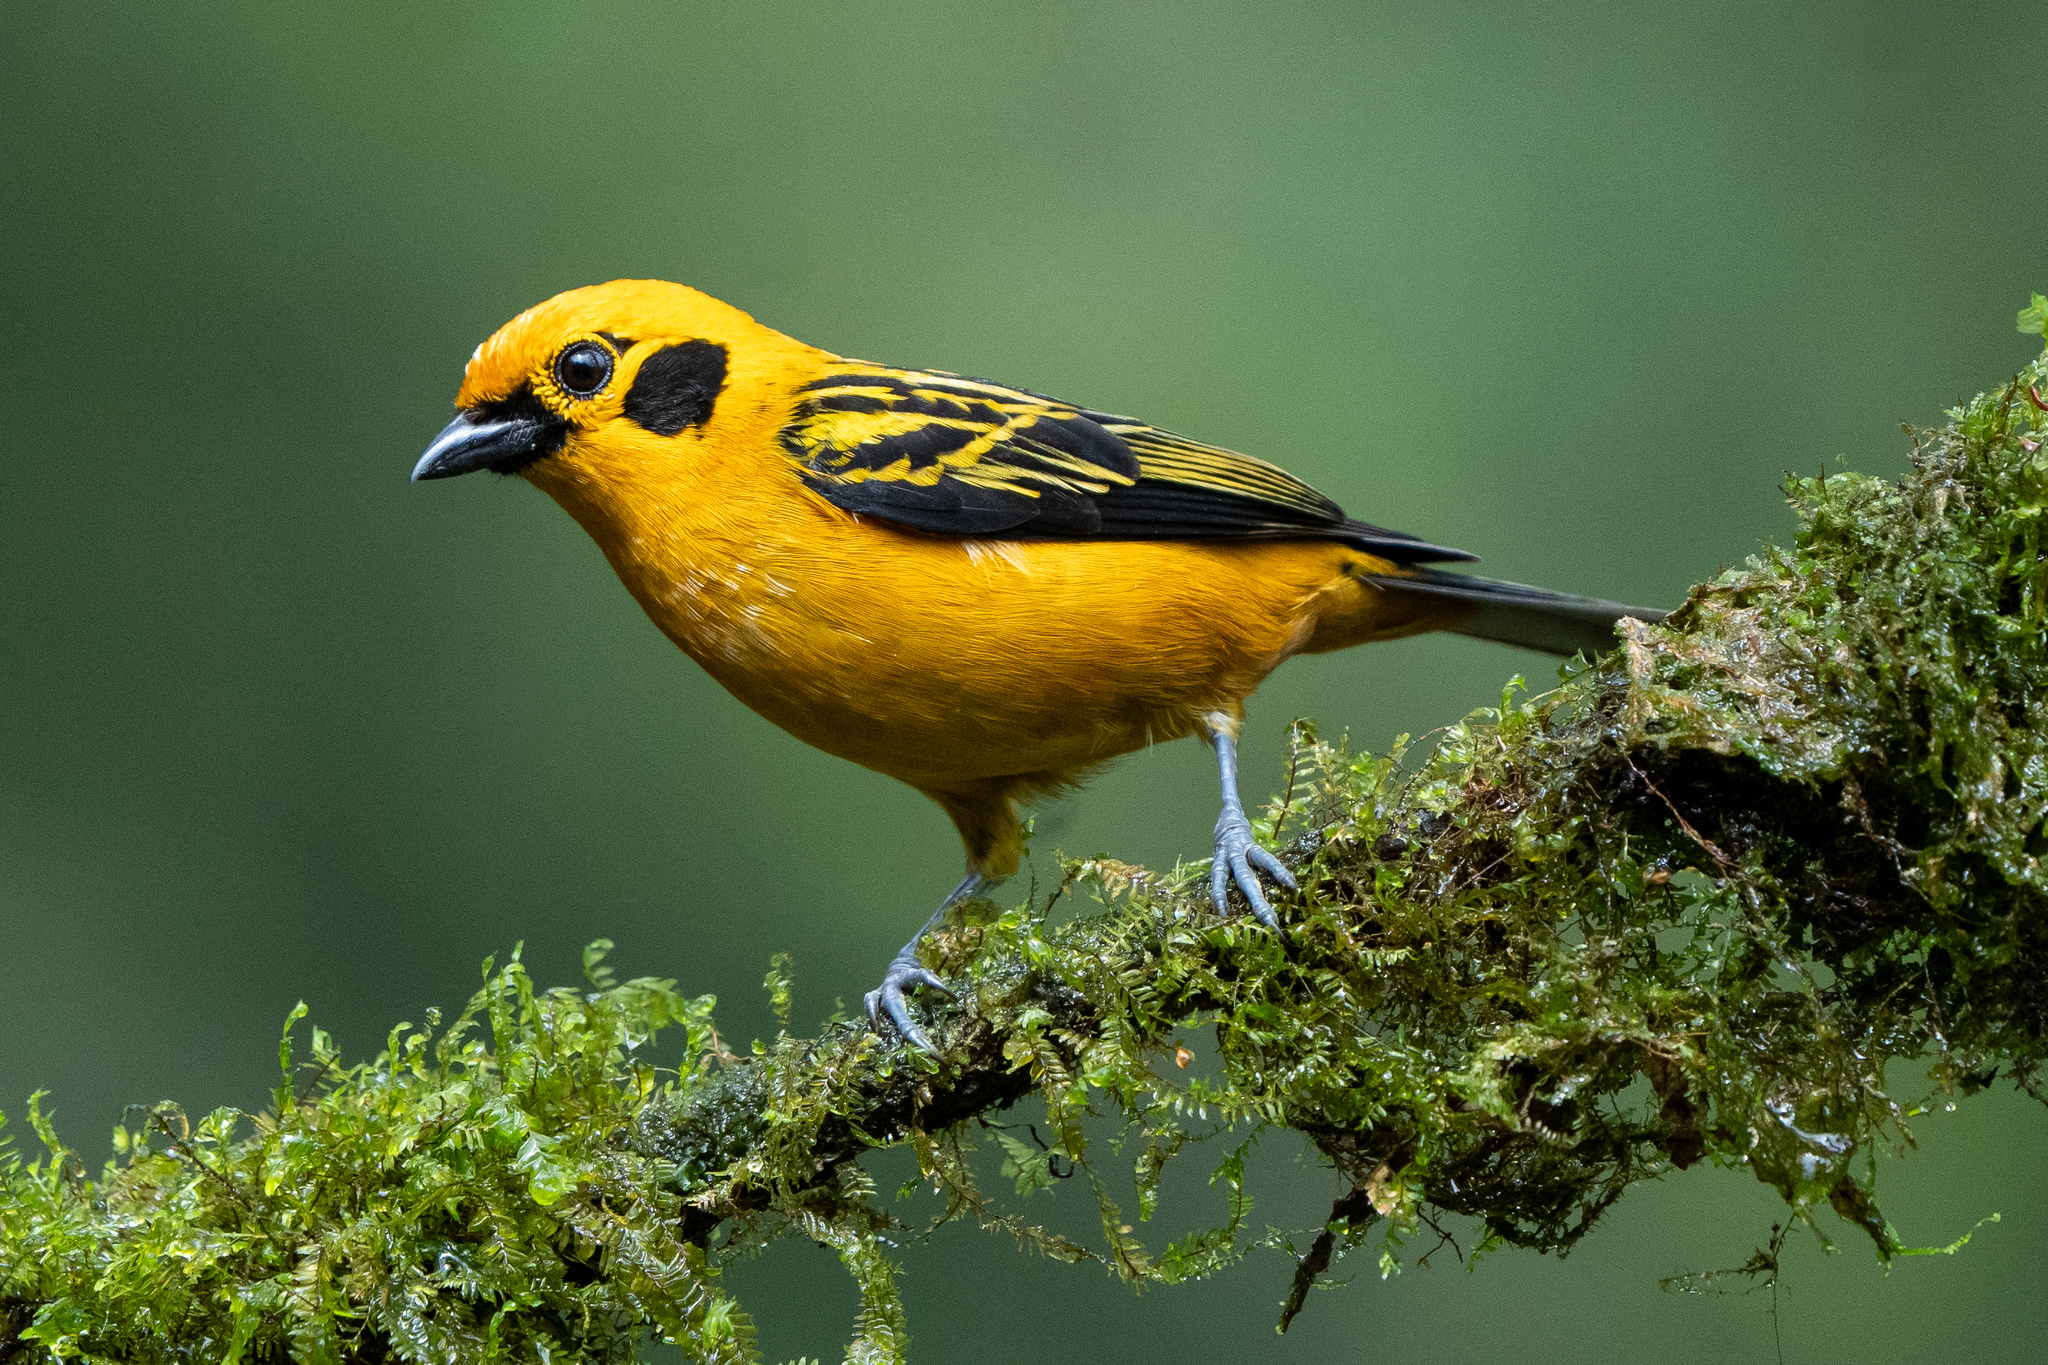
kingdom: Animalia
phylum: Chordata
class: Aves
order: Passeriformes
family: Thraupidae
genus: Tangara
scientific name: Tangara arthus
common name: Golden tanager
